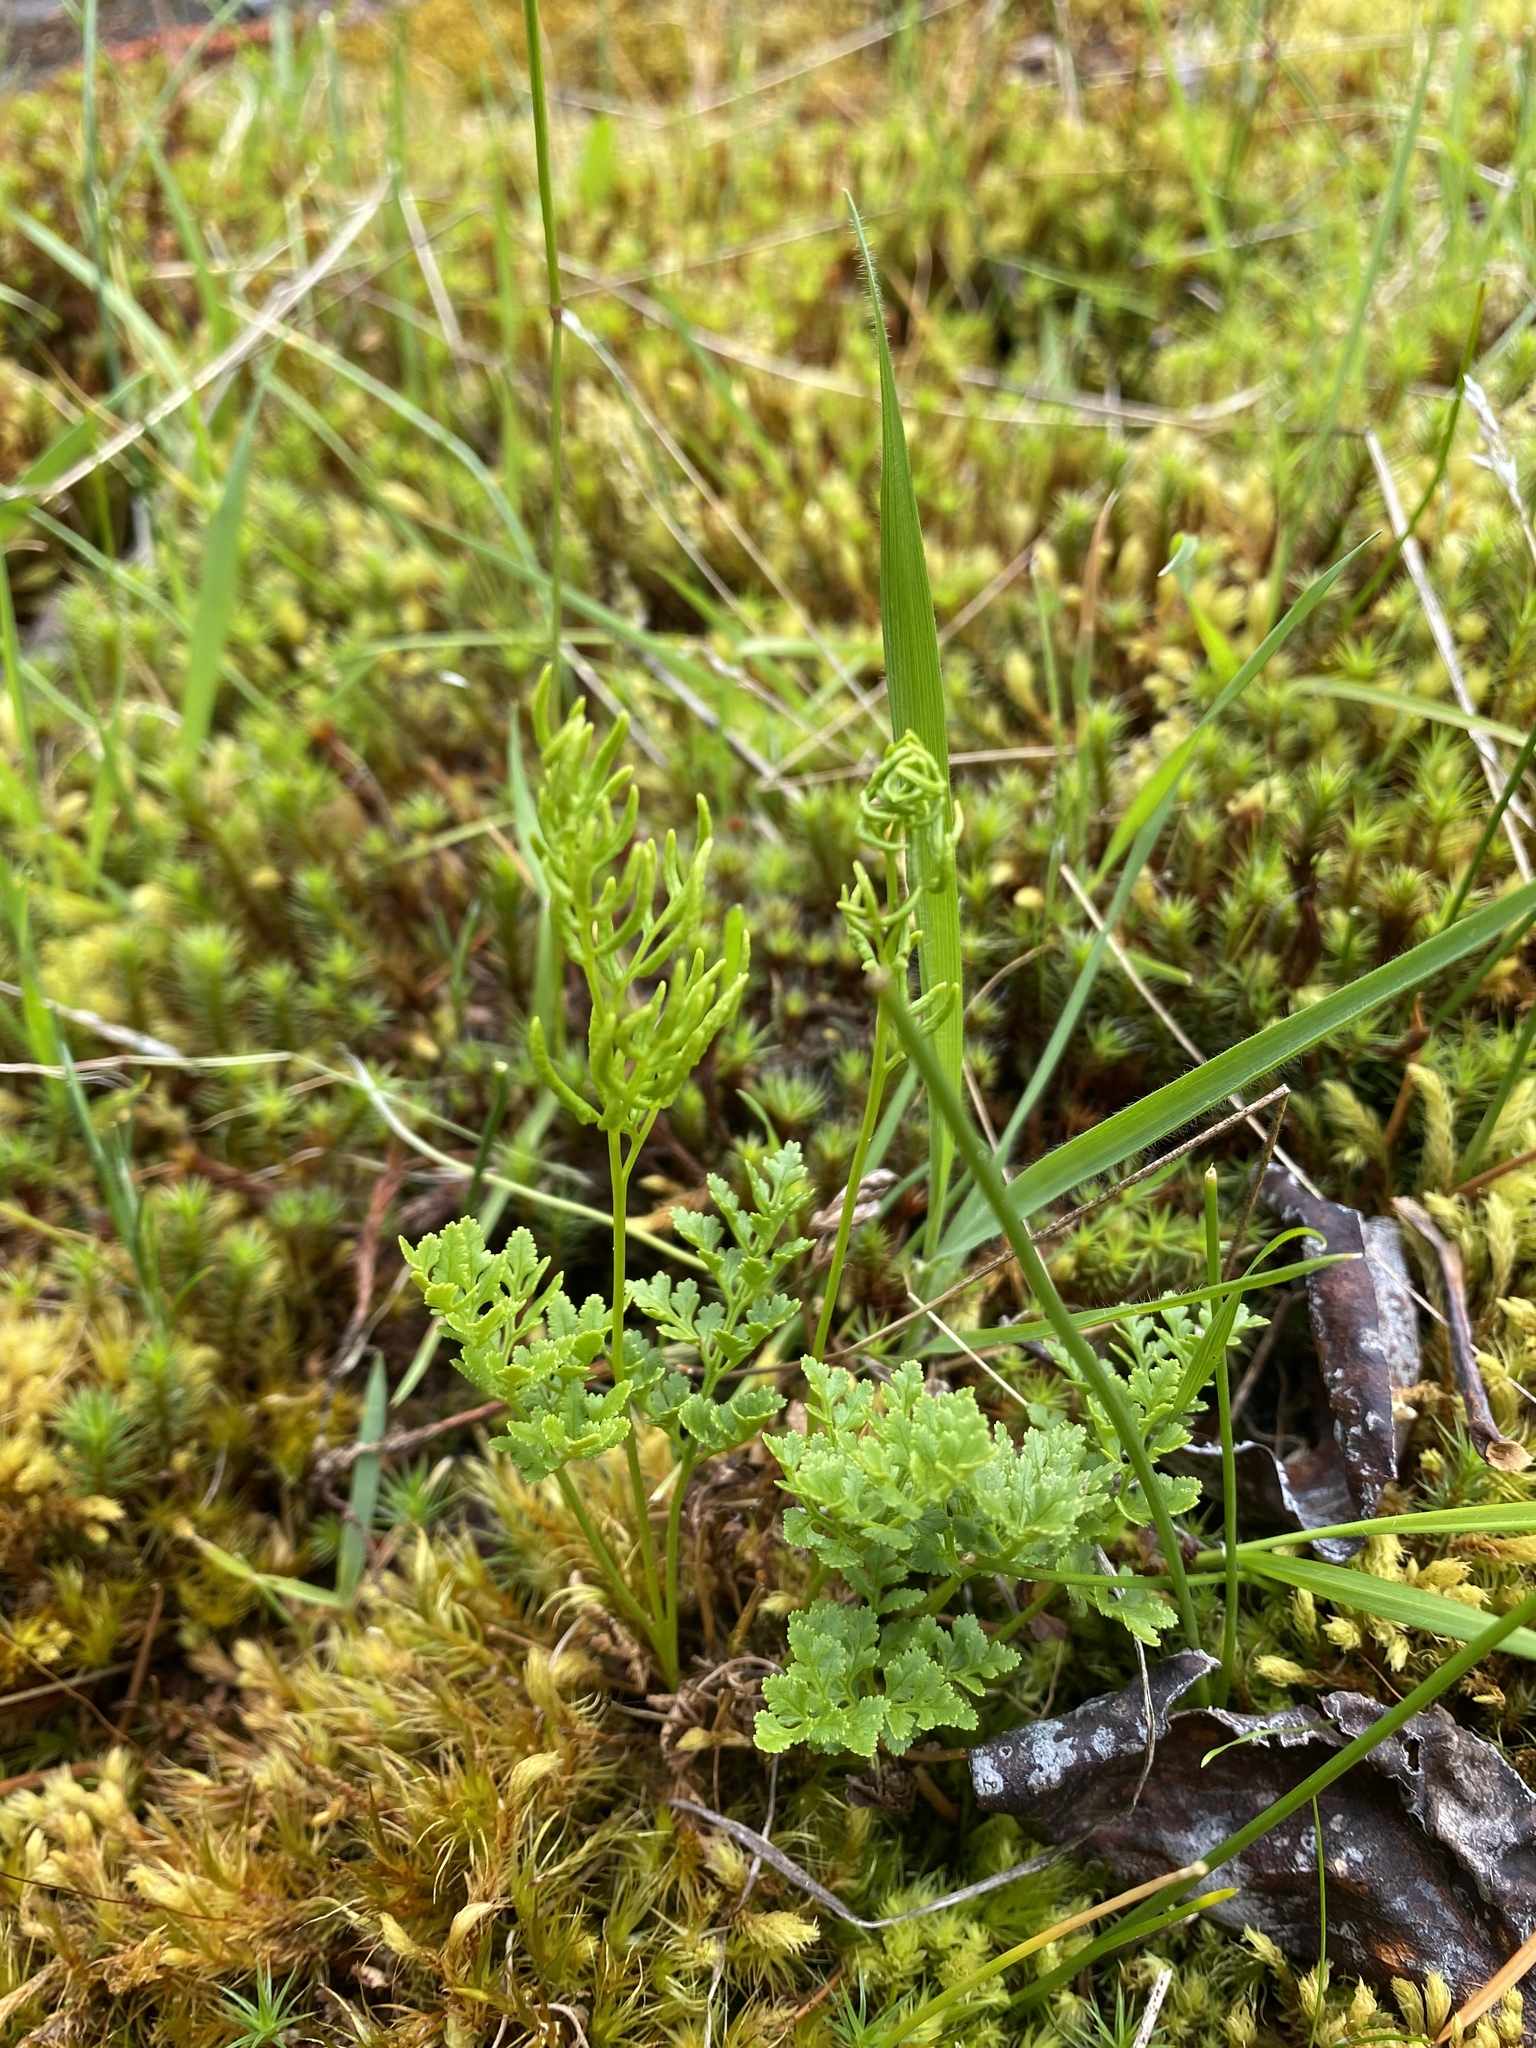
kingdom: Plantae
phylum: Tracheophyta
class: Polypodiopsida
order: Polypodiales
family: Pteridaceae
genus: Cryptogramma
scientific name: Cryptogramma acrostichoides
